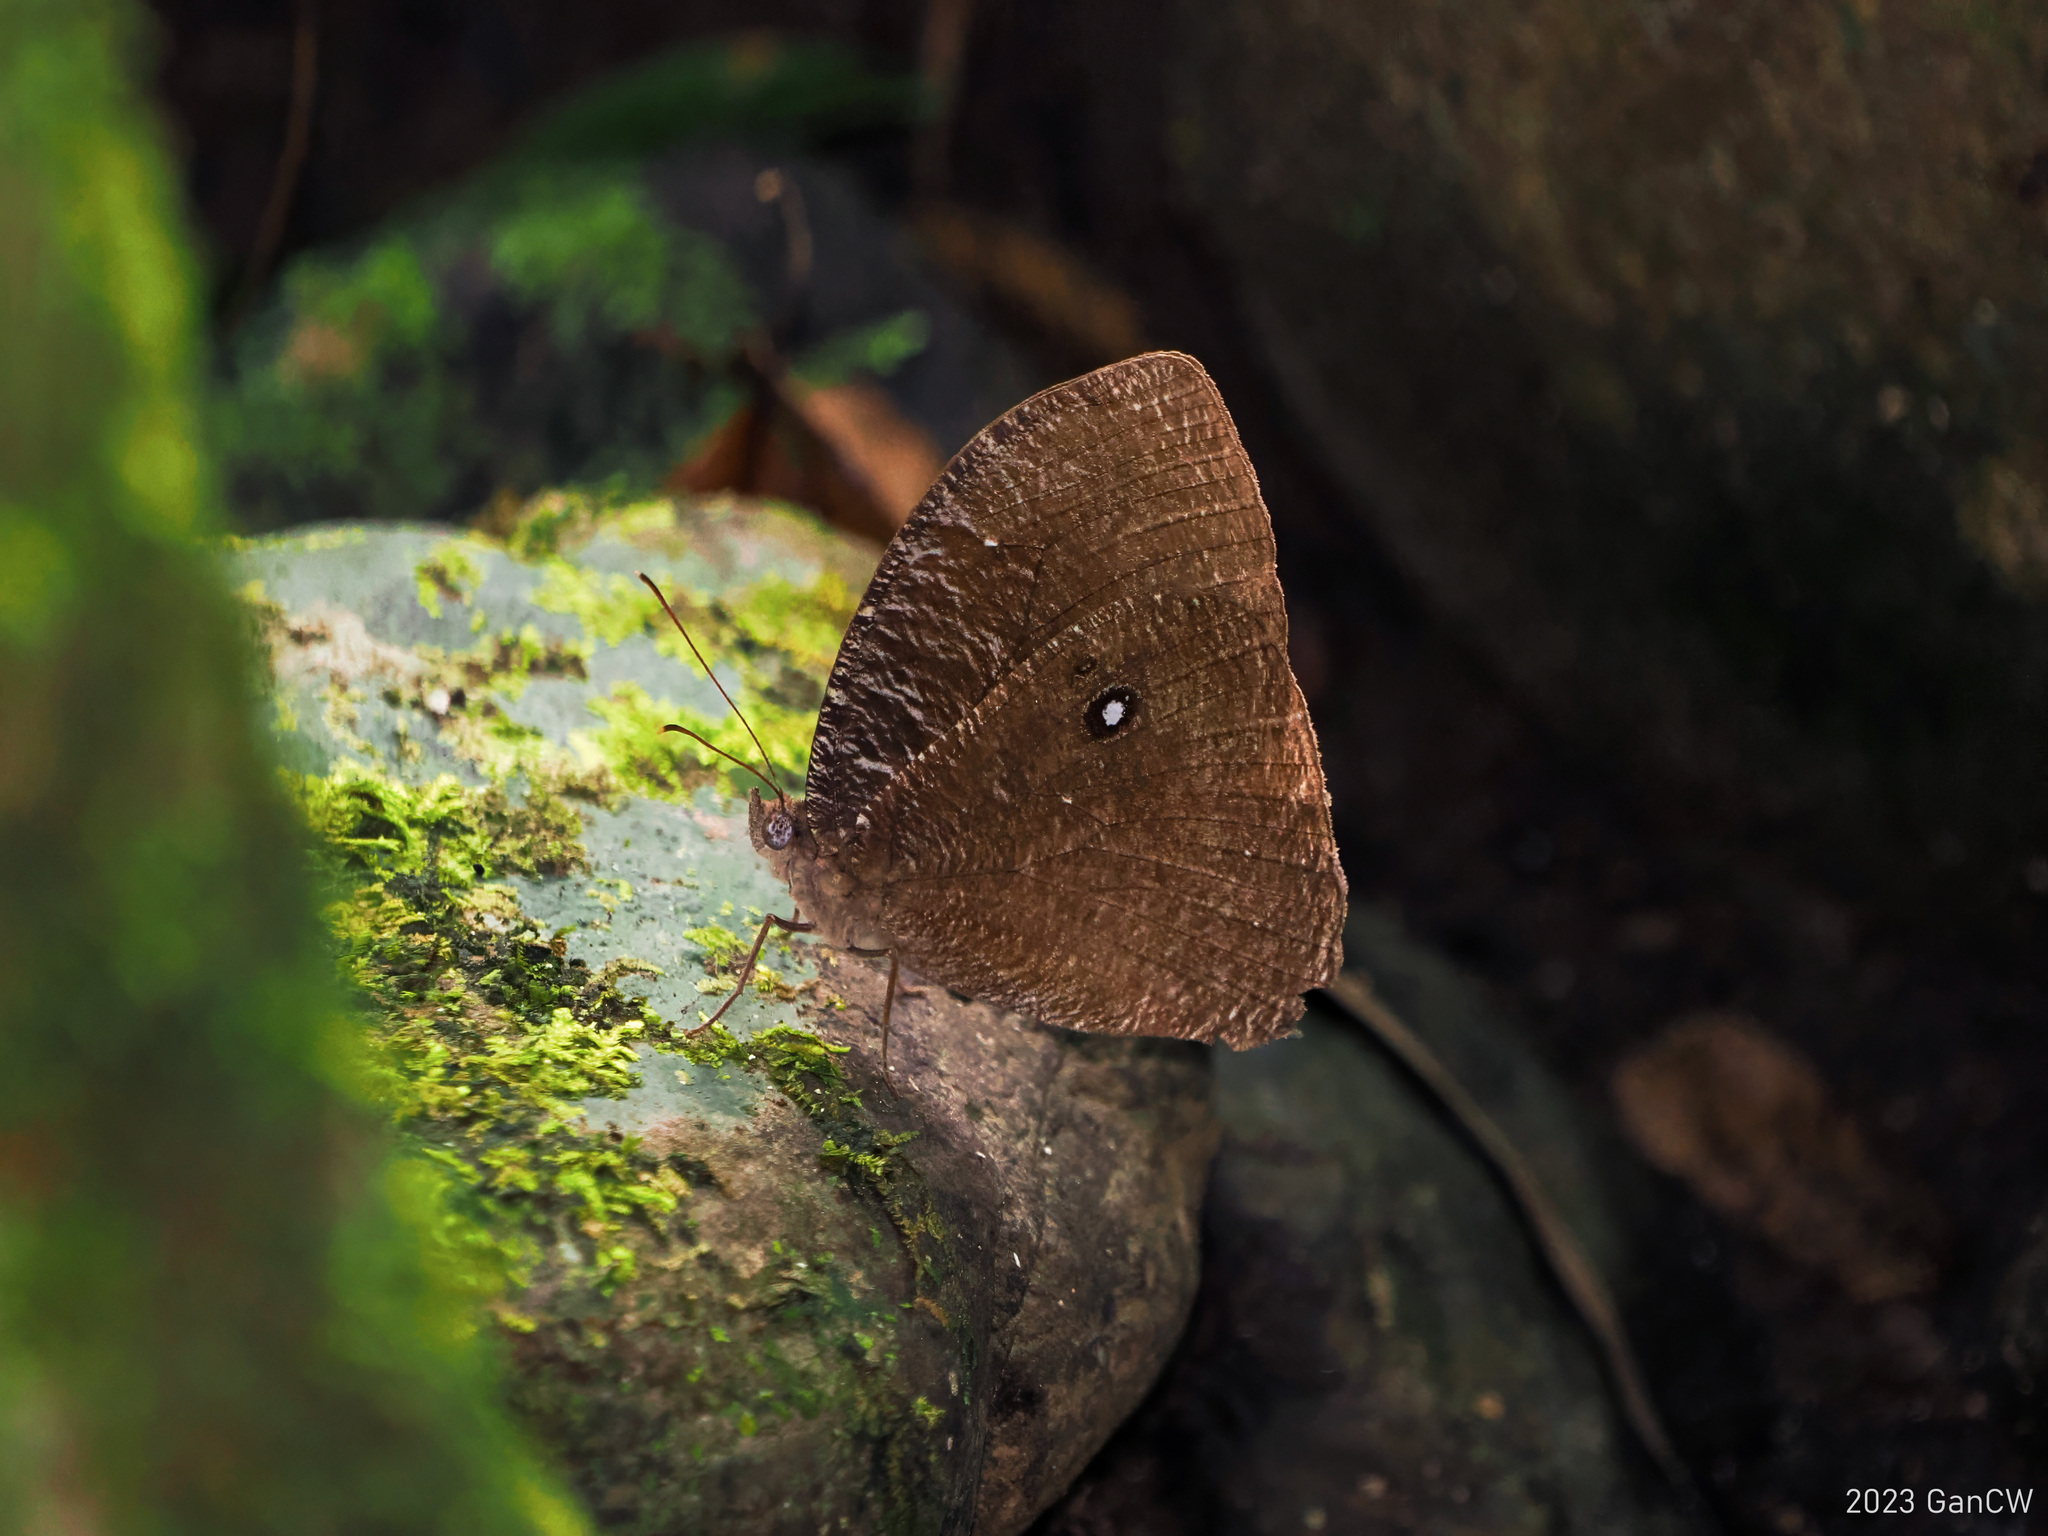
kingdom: Animalia
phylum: Arthropoda
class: Insecta
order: Lepidoptera
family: Nymphalidae
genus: Bletogona
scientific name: Bletogona mycalesis
